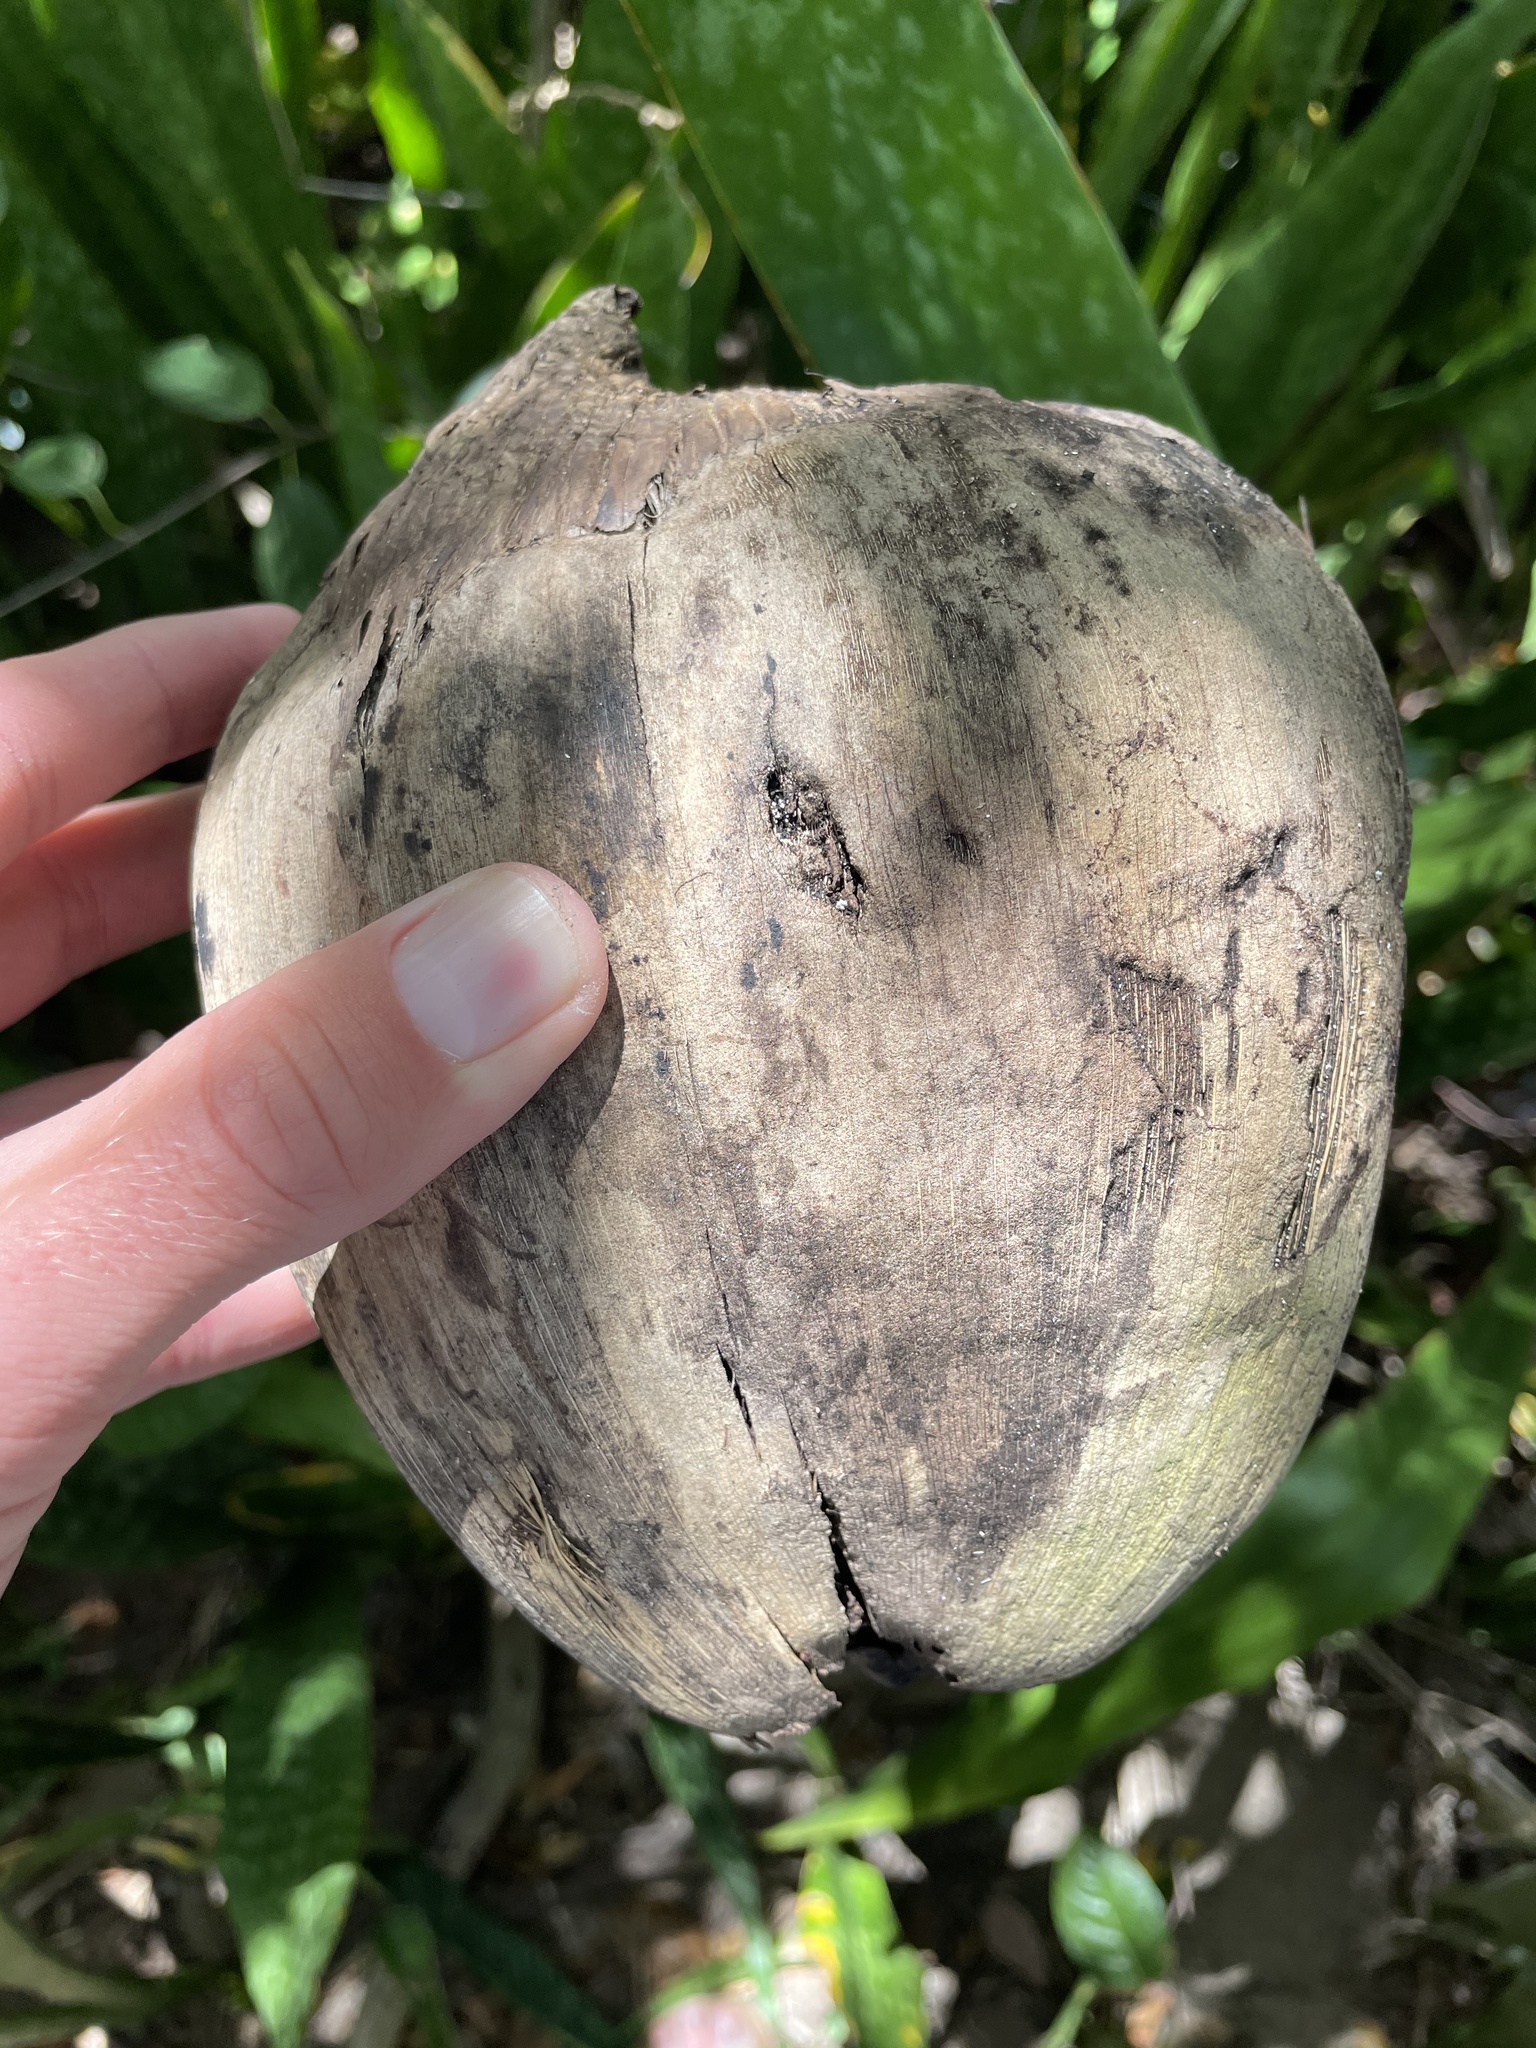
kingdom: Plantae
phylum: Tracheophyta
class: Liliopsida
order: Arecales
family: Arecaceae
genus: Cocos
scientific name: Cocos nucifera
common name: Coconut palm
